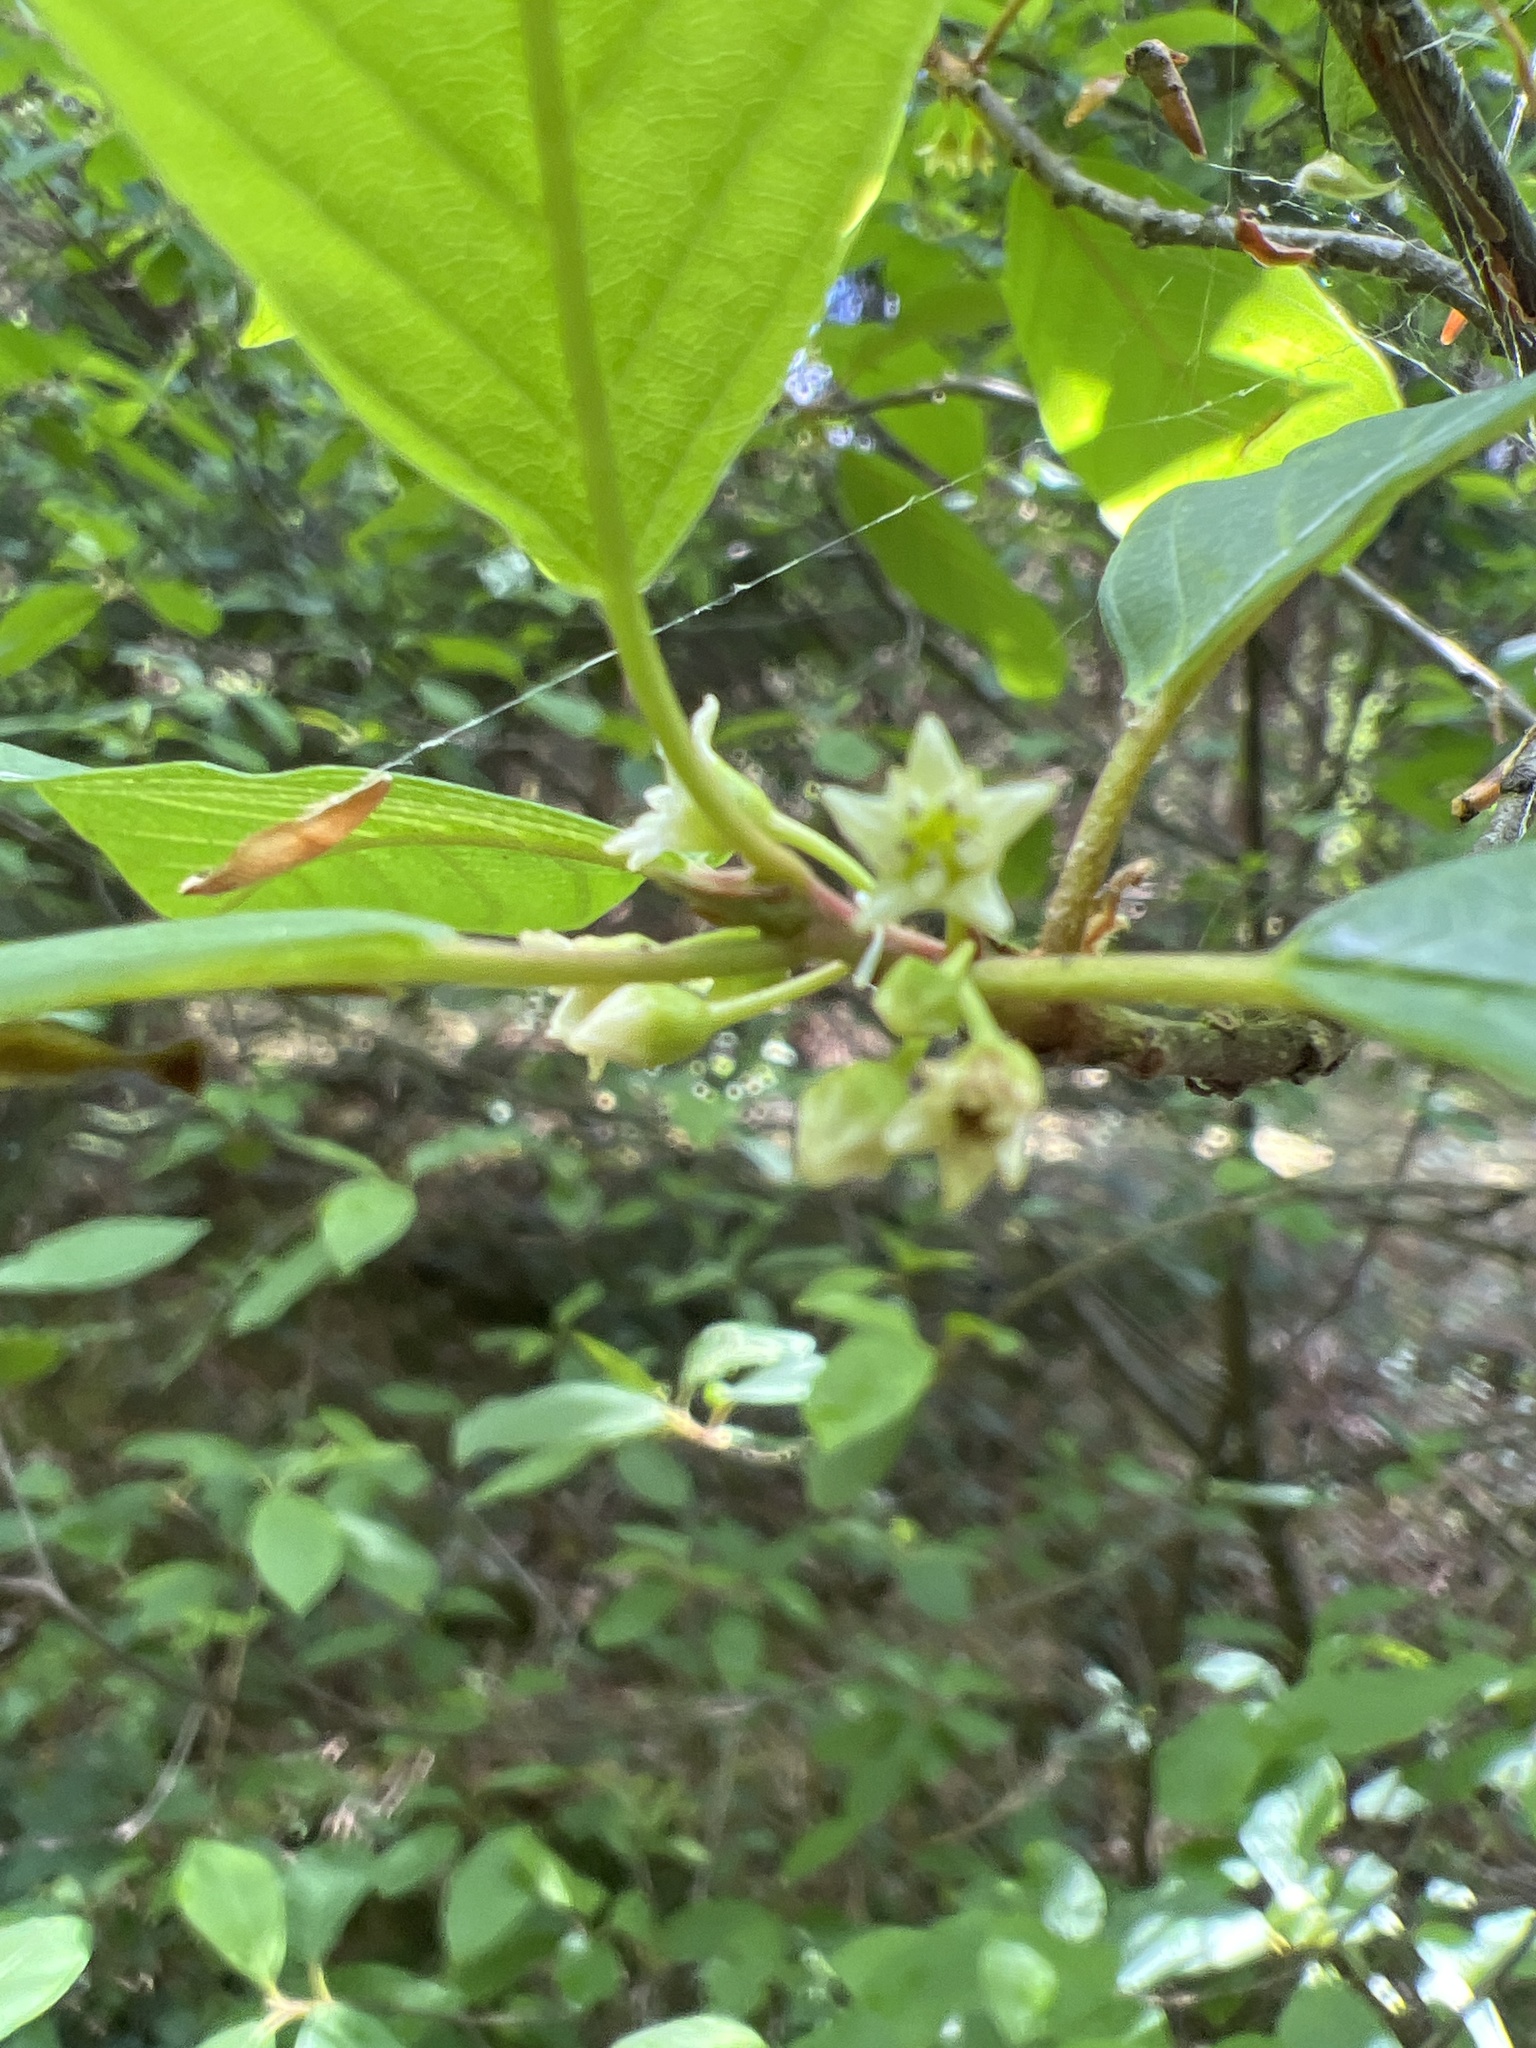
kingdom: Plantae
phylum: Tracheophyta
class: Magnoliopsida
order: Rosales
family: Rhamnaceae
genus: Frangula
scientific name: Frangula alnus
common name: Alder buckthorn
